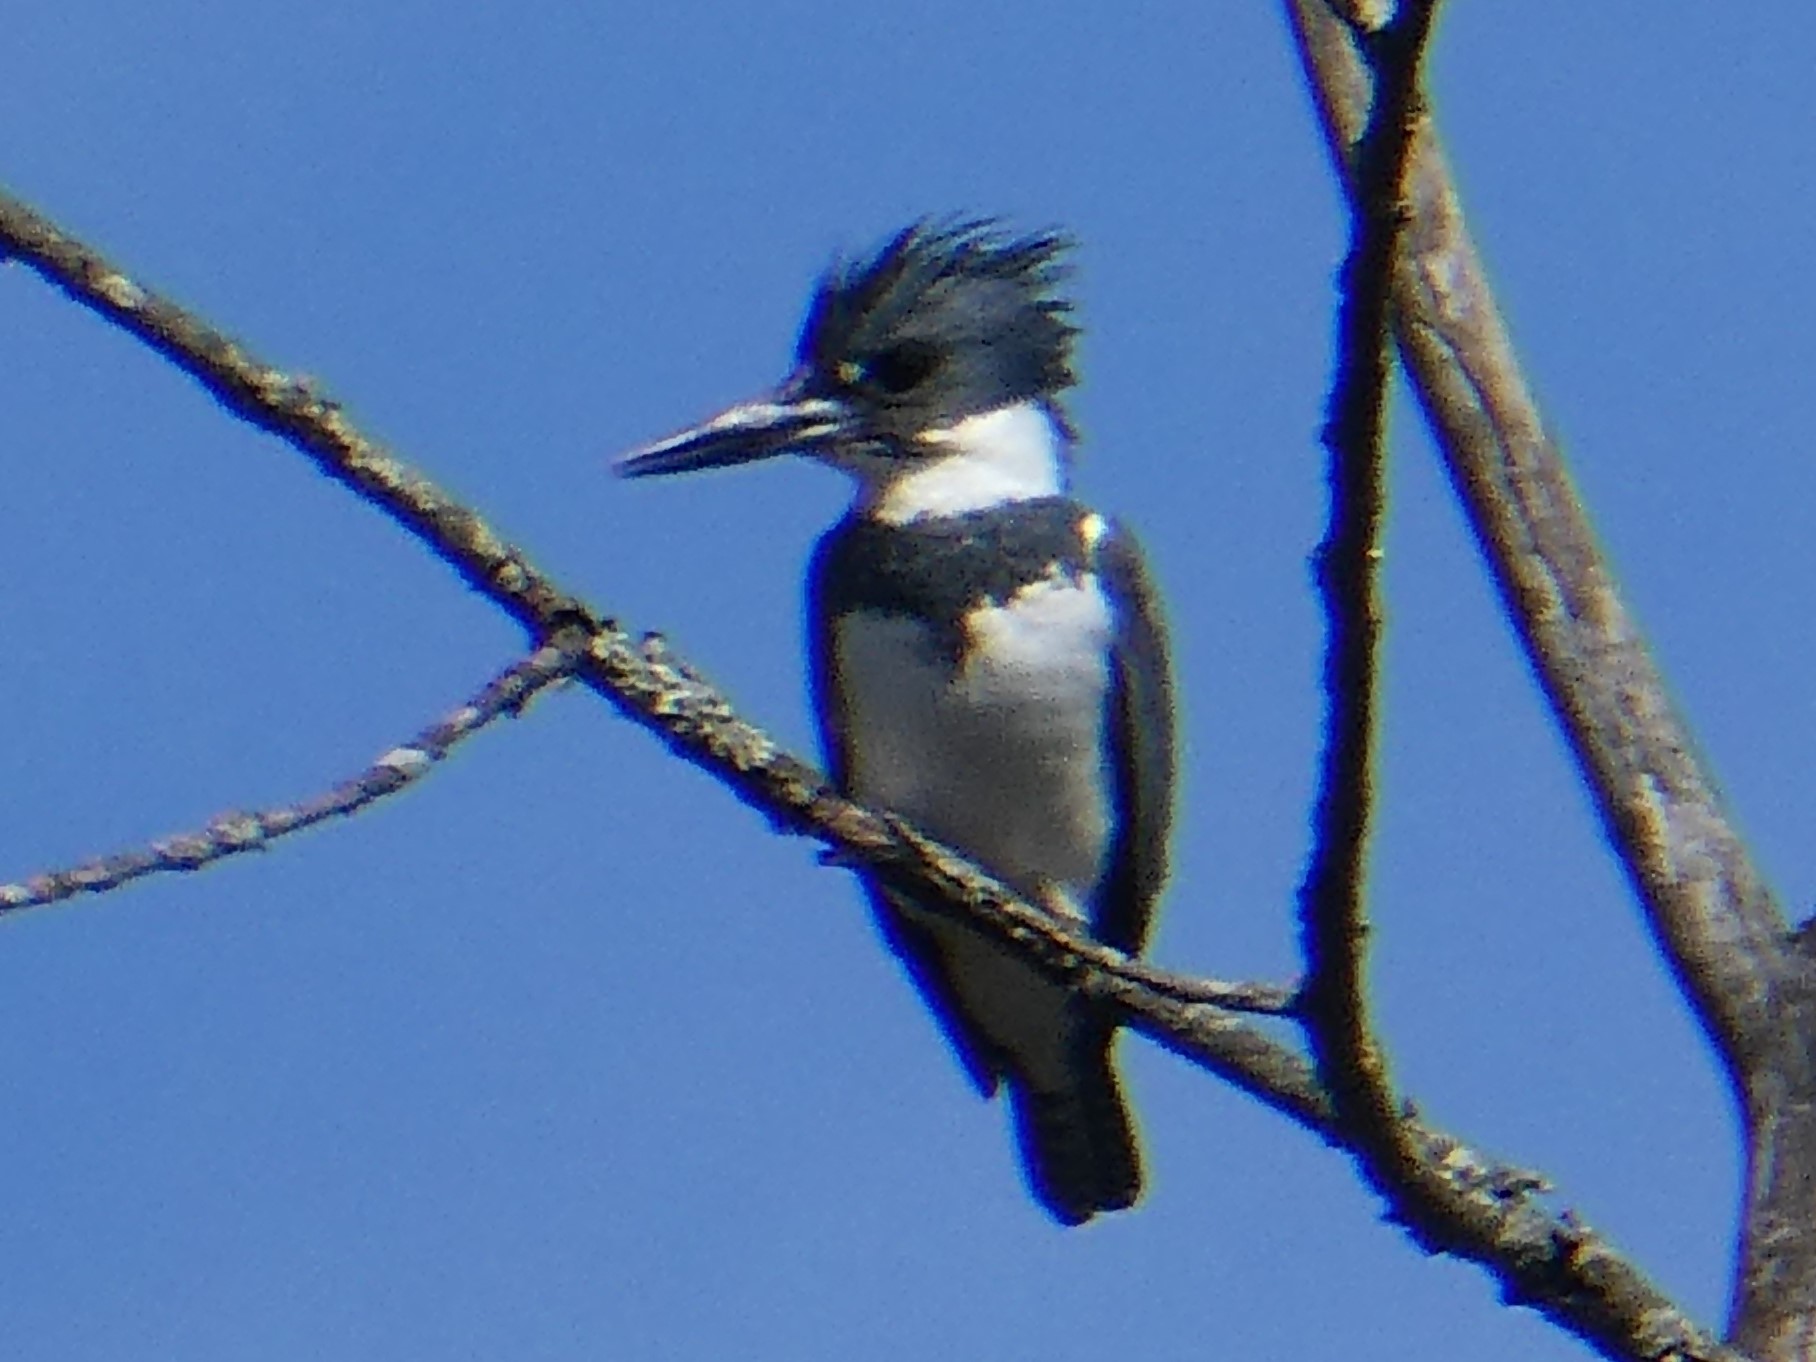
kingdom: Animalia
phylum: Chordata
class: Aves
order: Coraciiformes
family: Alcedinidae
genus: Megaceryle
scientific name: Megaceryle alcyon
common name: Belted kingfisher
